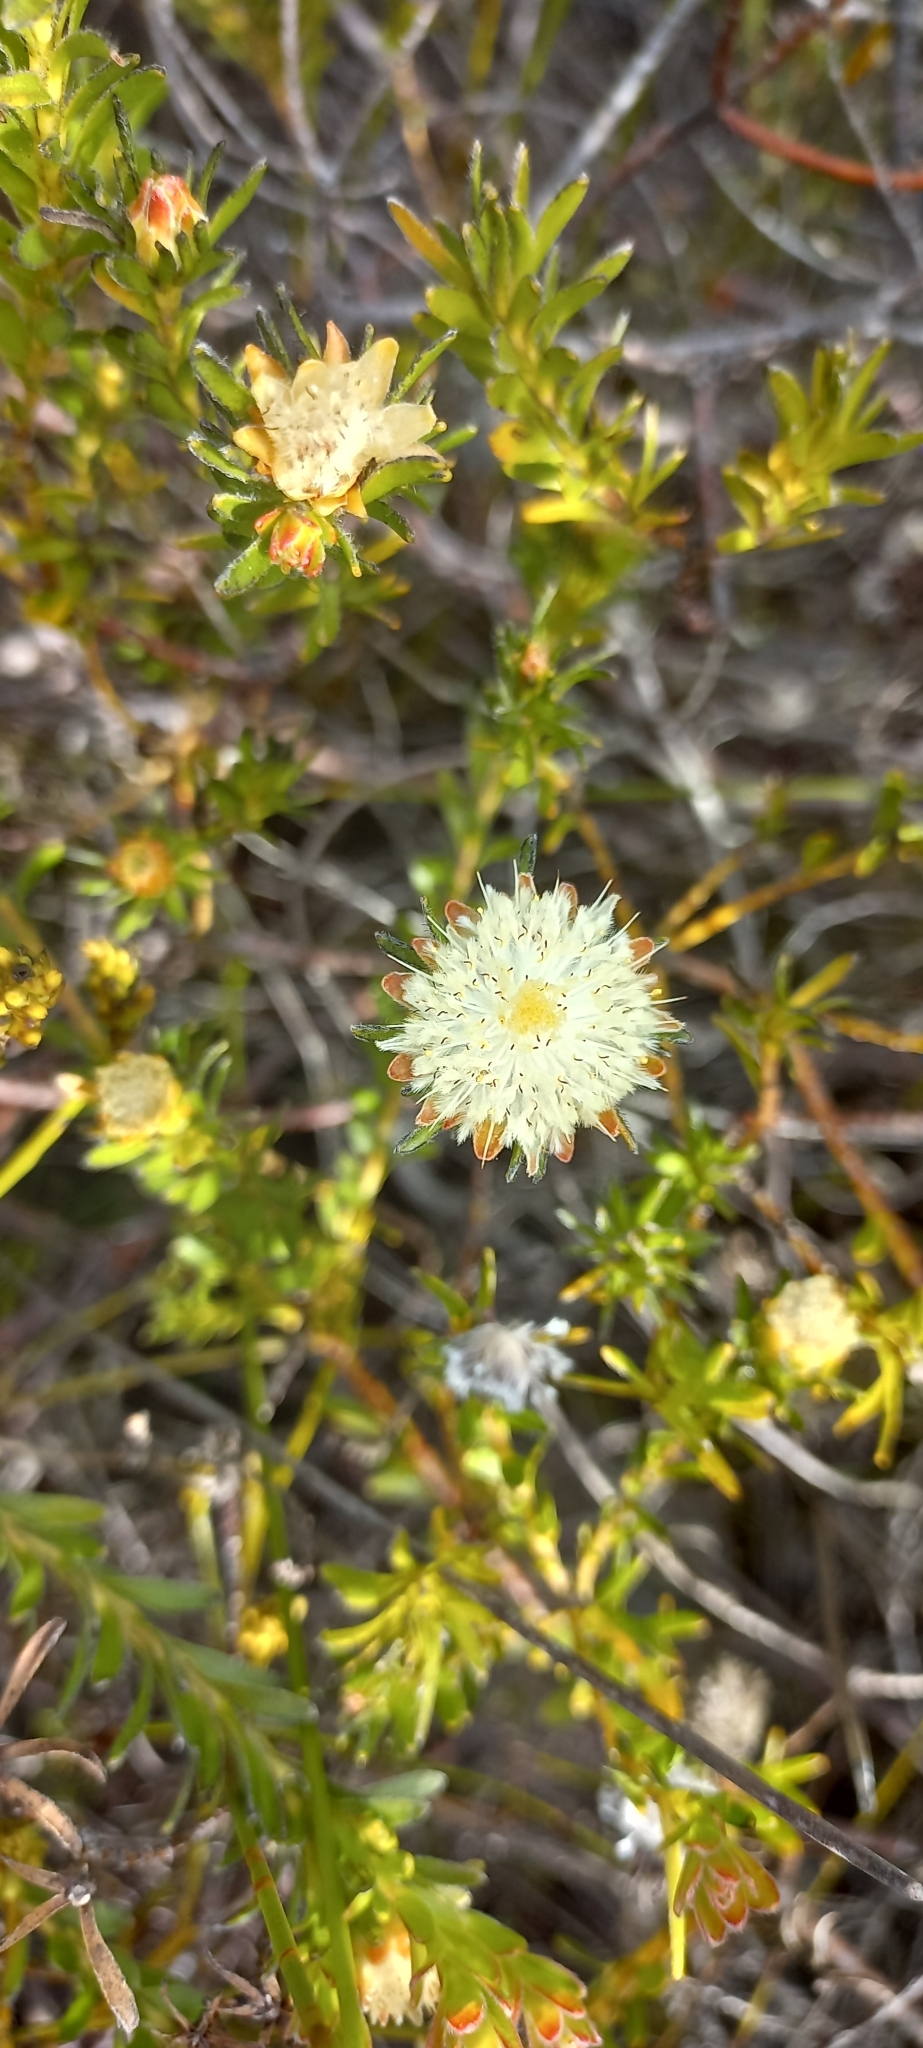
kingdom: Plantae
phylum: Tracheophyta
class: Magnoliopsida
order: Proteales
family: Proteaceae
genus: Diastella
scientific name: Diastella fraterna
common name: Palmiet silkypuff
